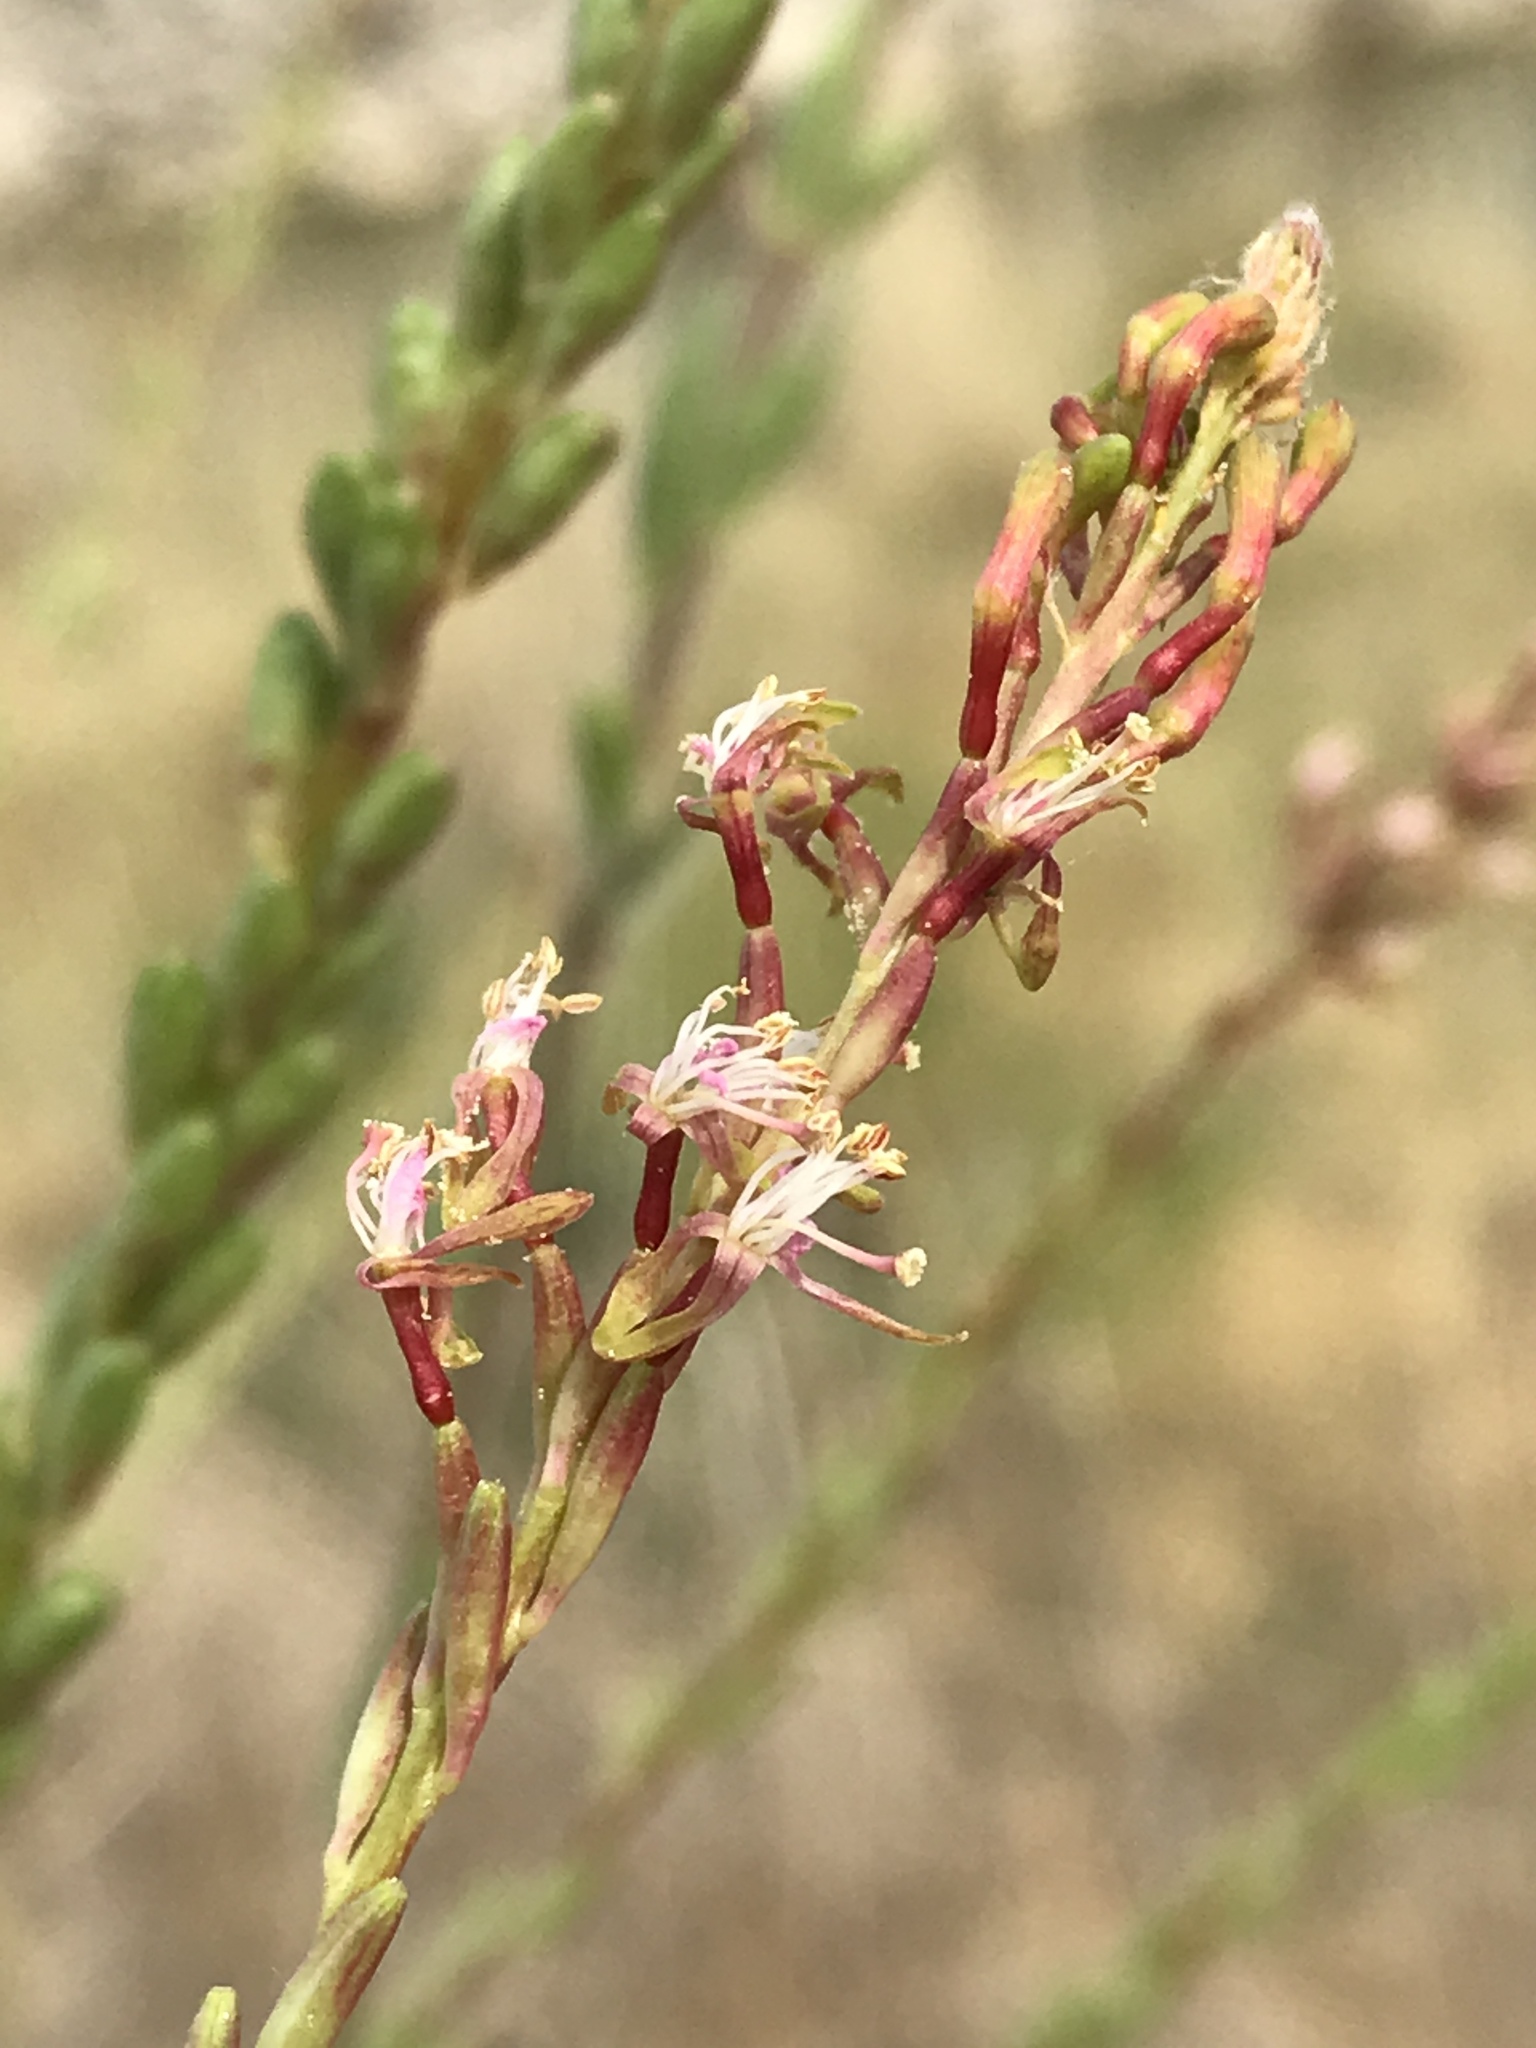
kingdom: Plantae
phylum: Tracheophyta
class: Magnoliopsida
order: Myrtales
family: Onagraceae
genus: Oenothera
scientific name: Oenothera curtiflora
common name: Velvetweed
